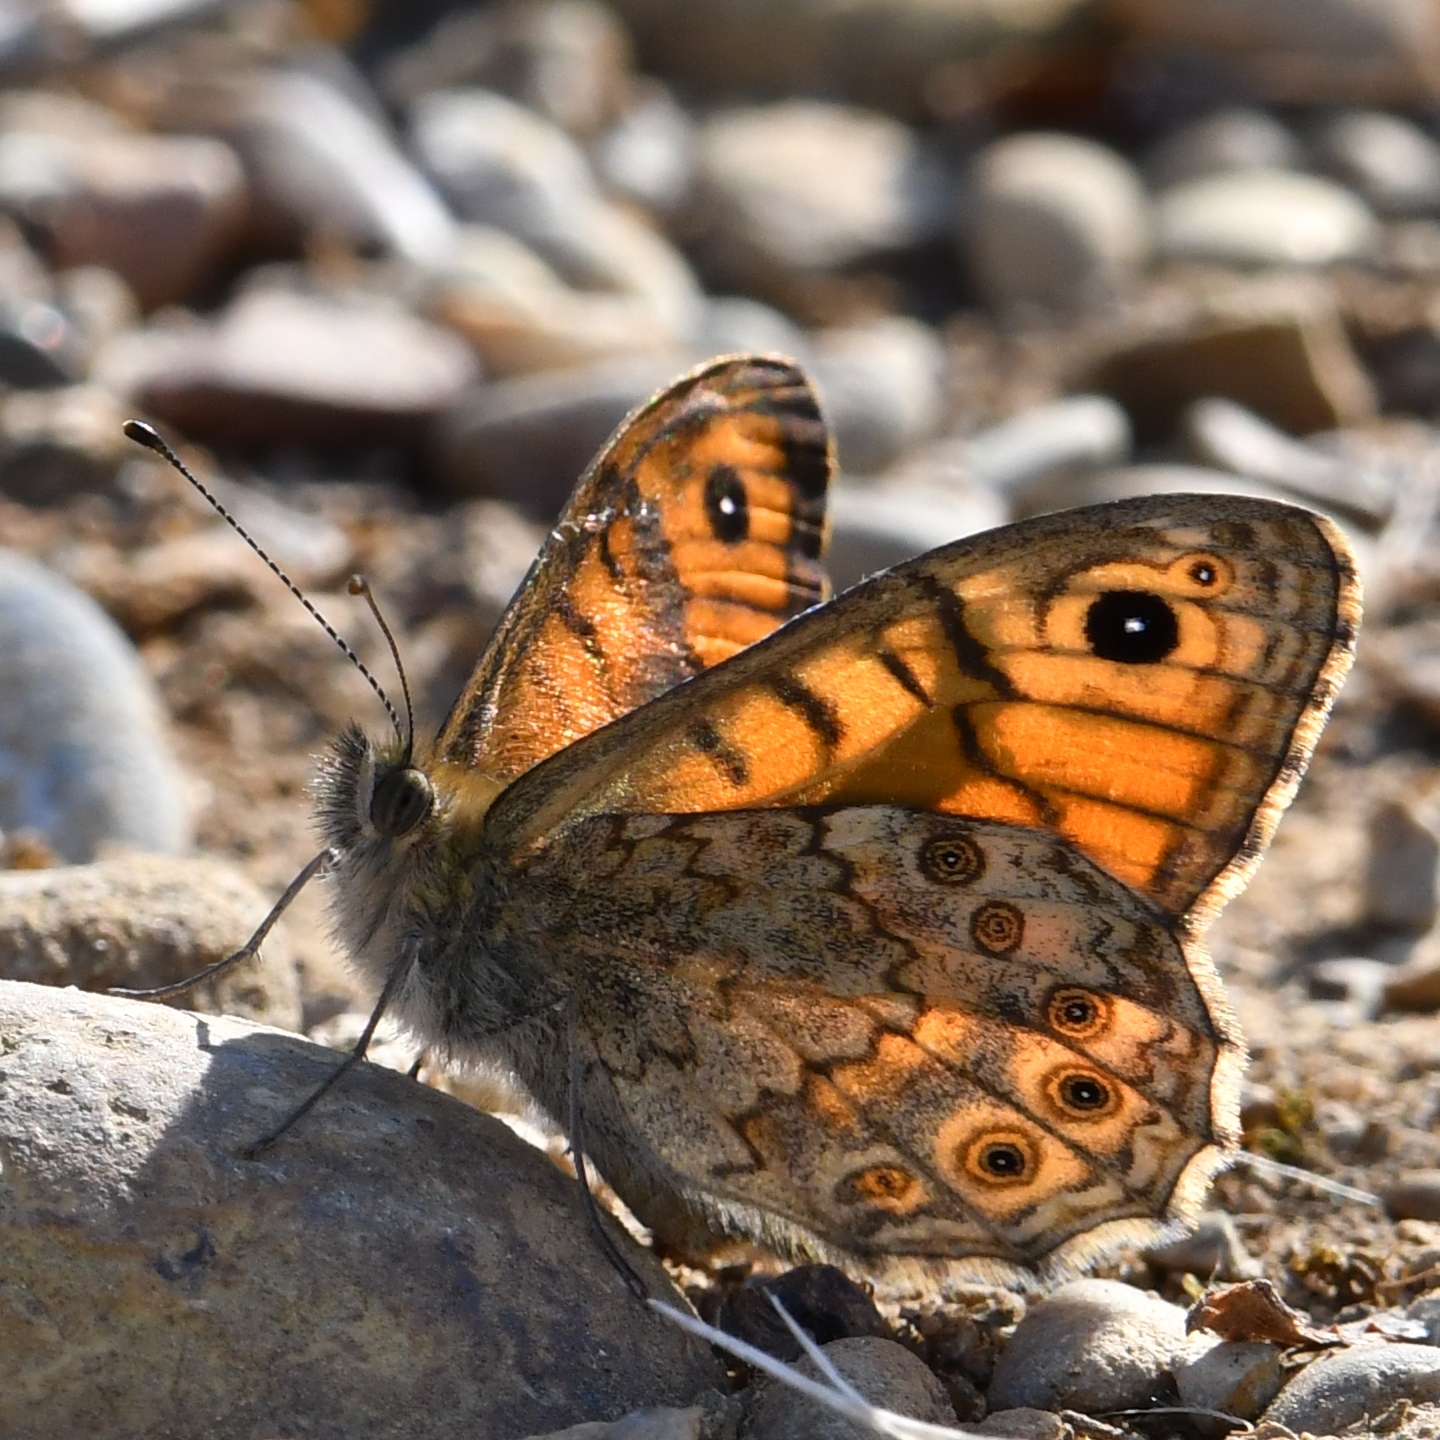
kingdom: Animalia
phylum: Arthropoda
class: Insecta
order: Lepidoptera
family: Nymphalidae
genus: Pararge
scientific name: Pararge Lasiommata megera
